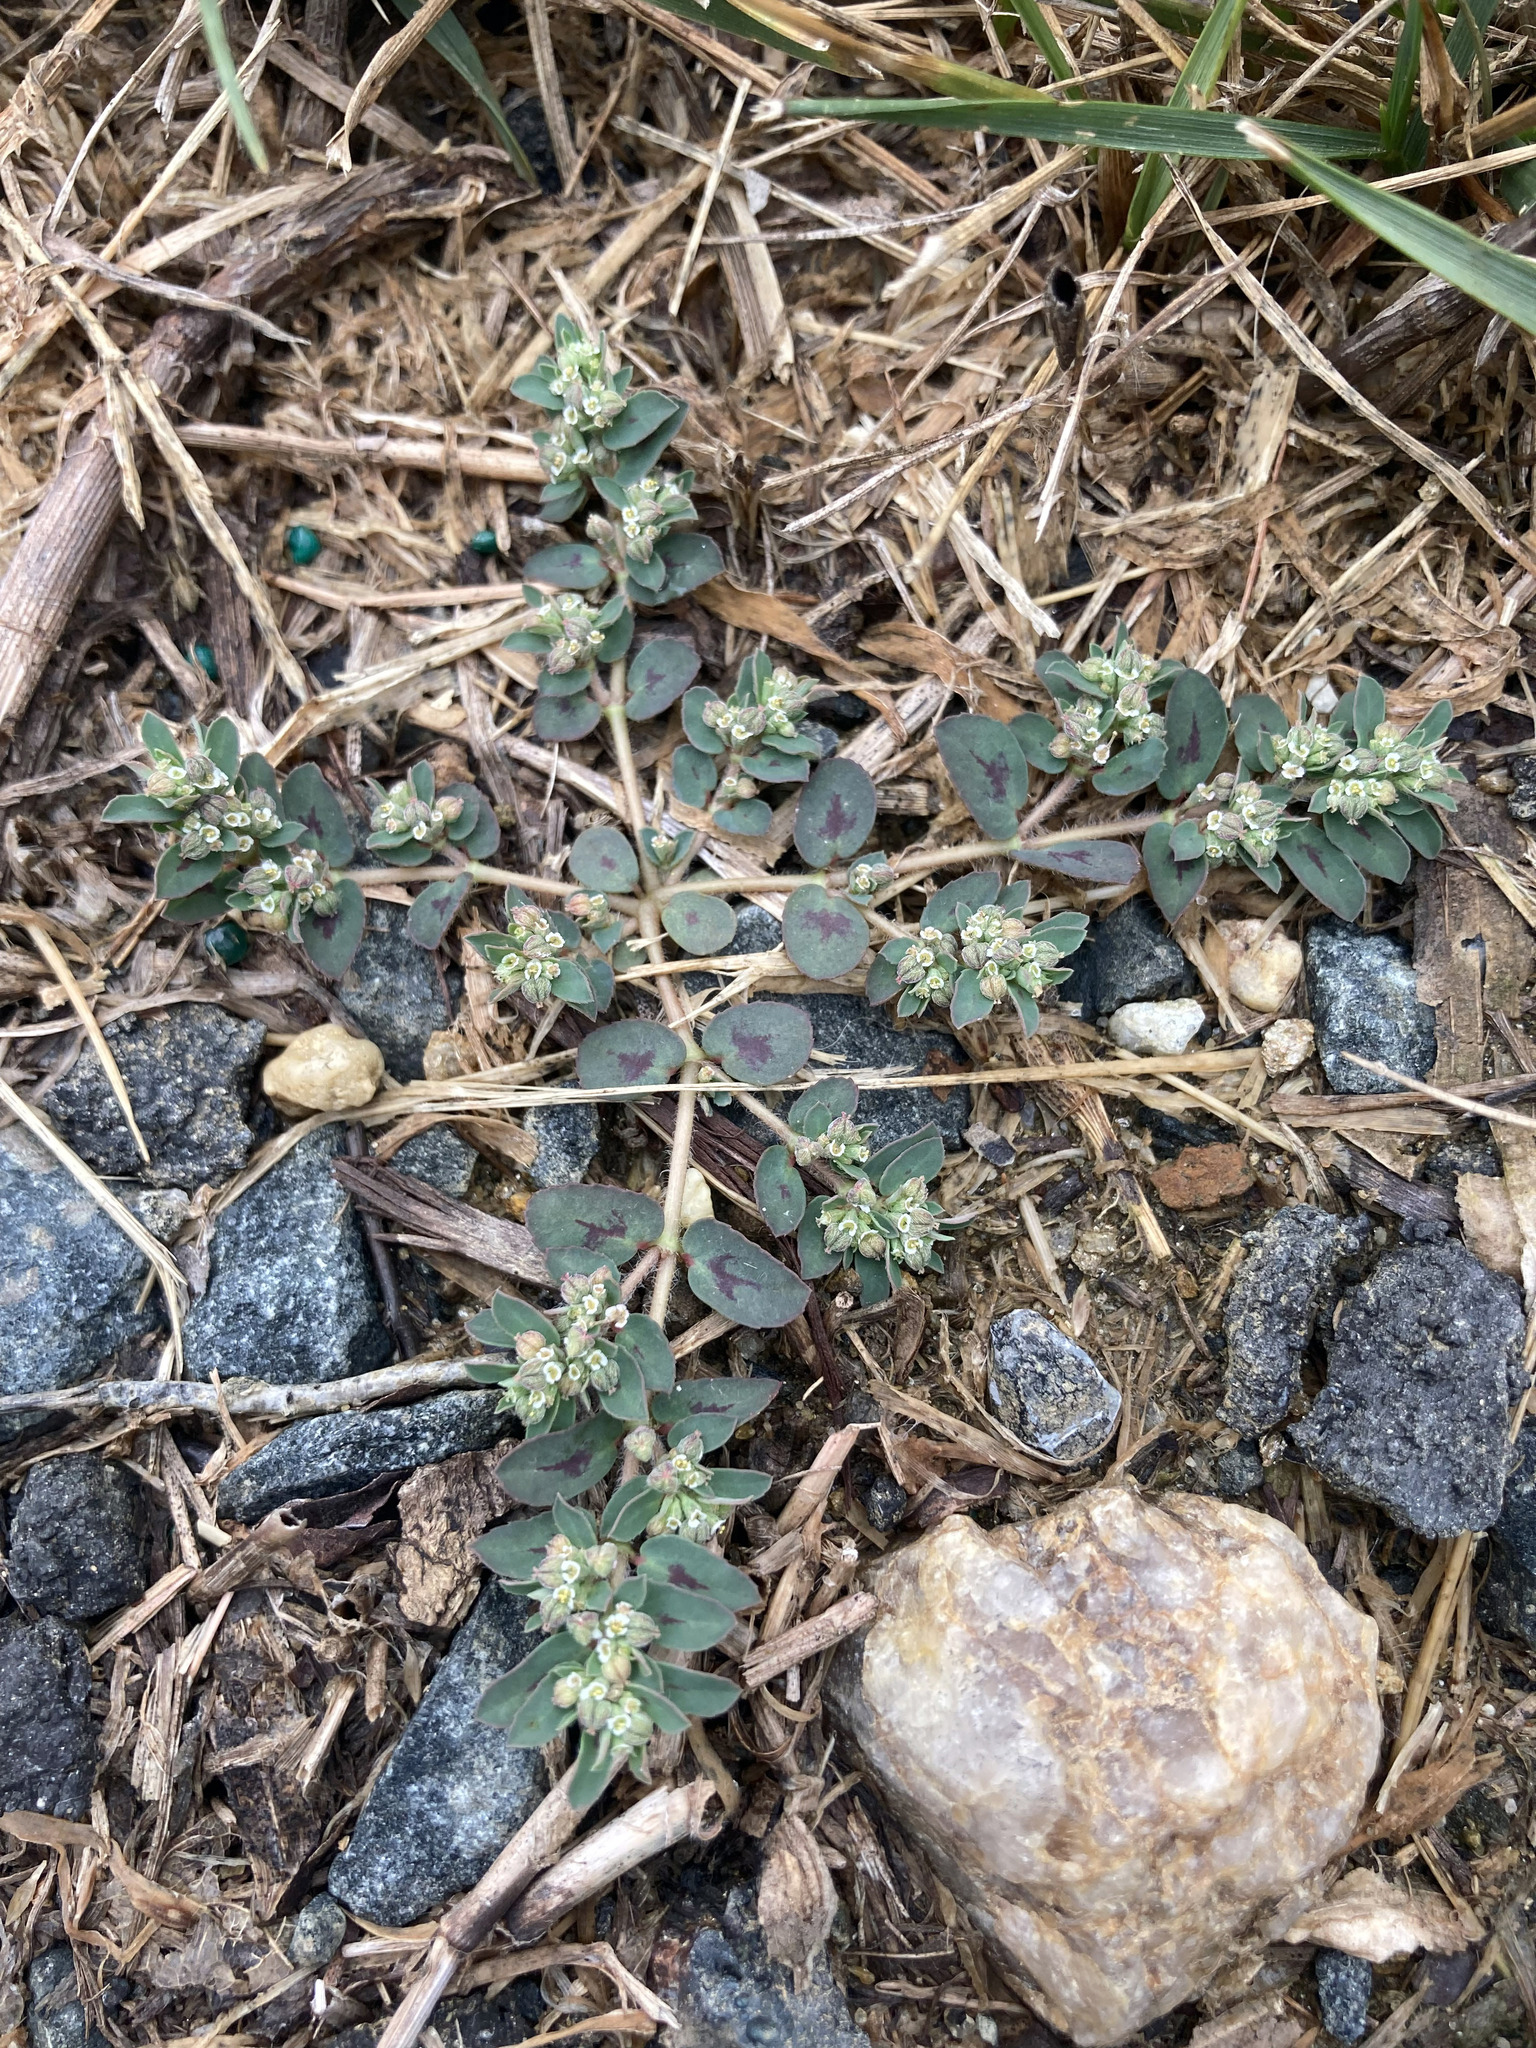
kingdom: Plantae
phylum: Tracheophyta
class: Magnoliopsida
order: Malpighiales
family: Euphorbiaceae
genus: Euphorbia
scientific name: Euphorbia maculata
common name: Spotted spurge
